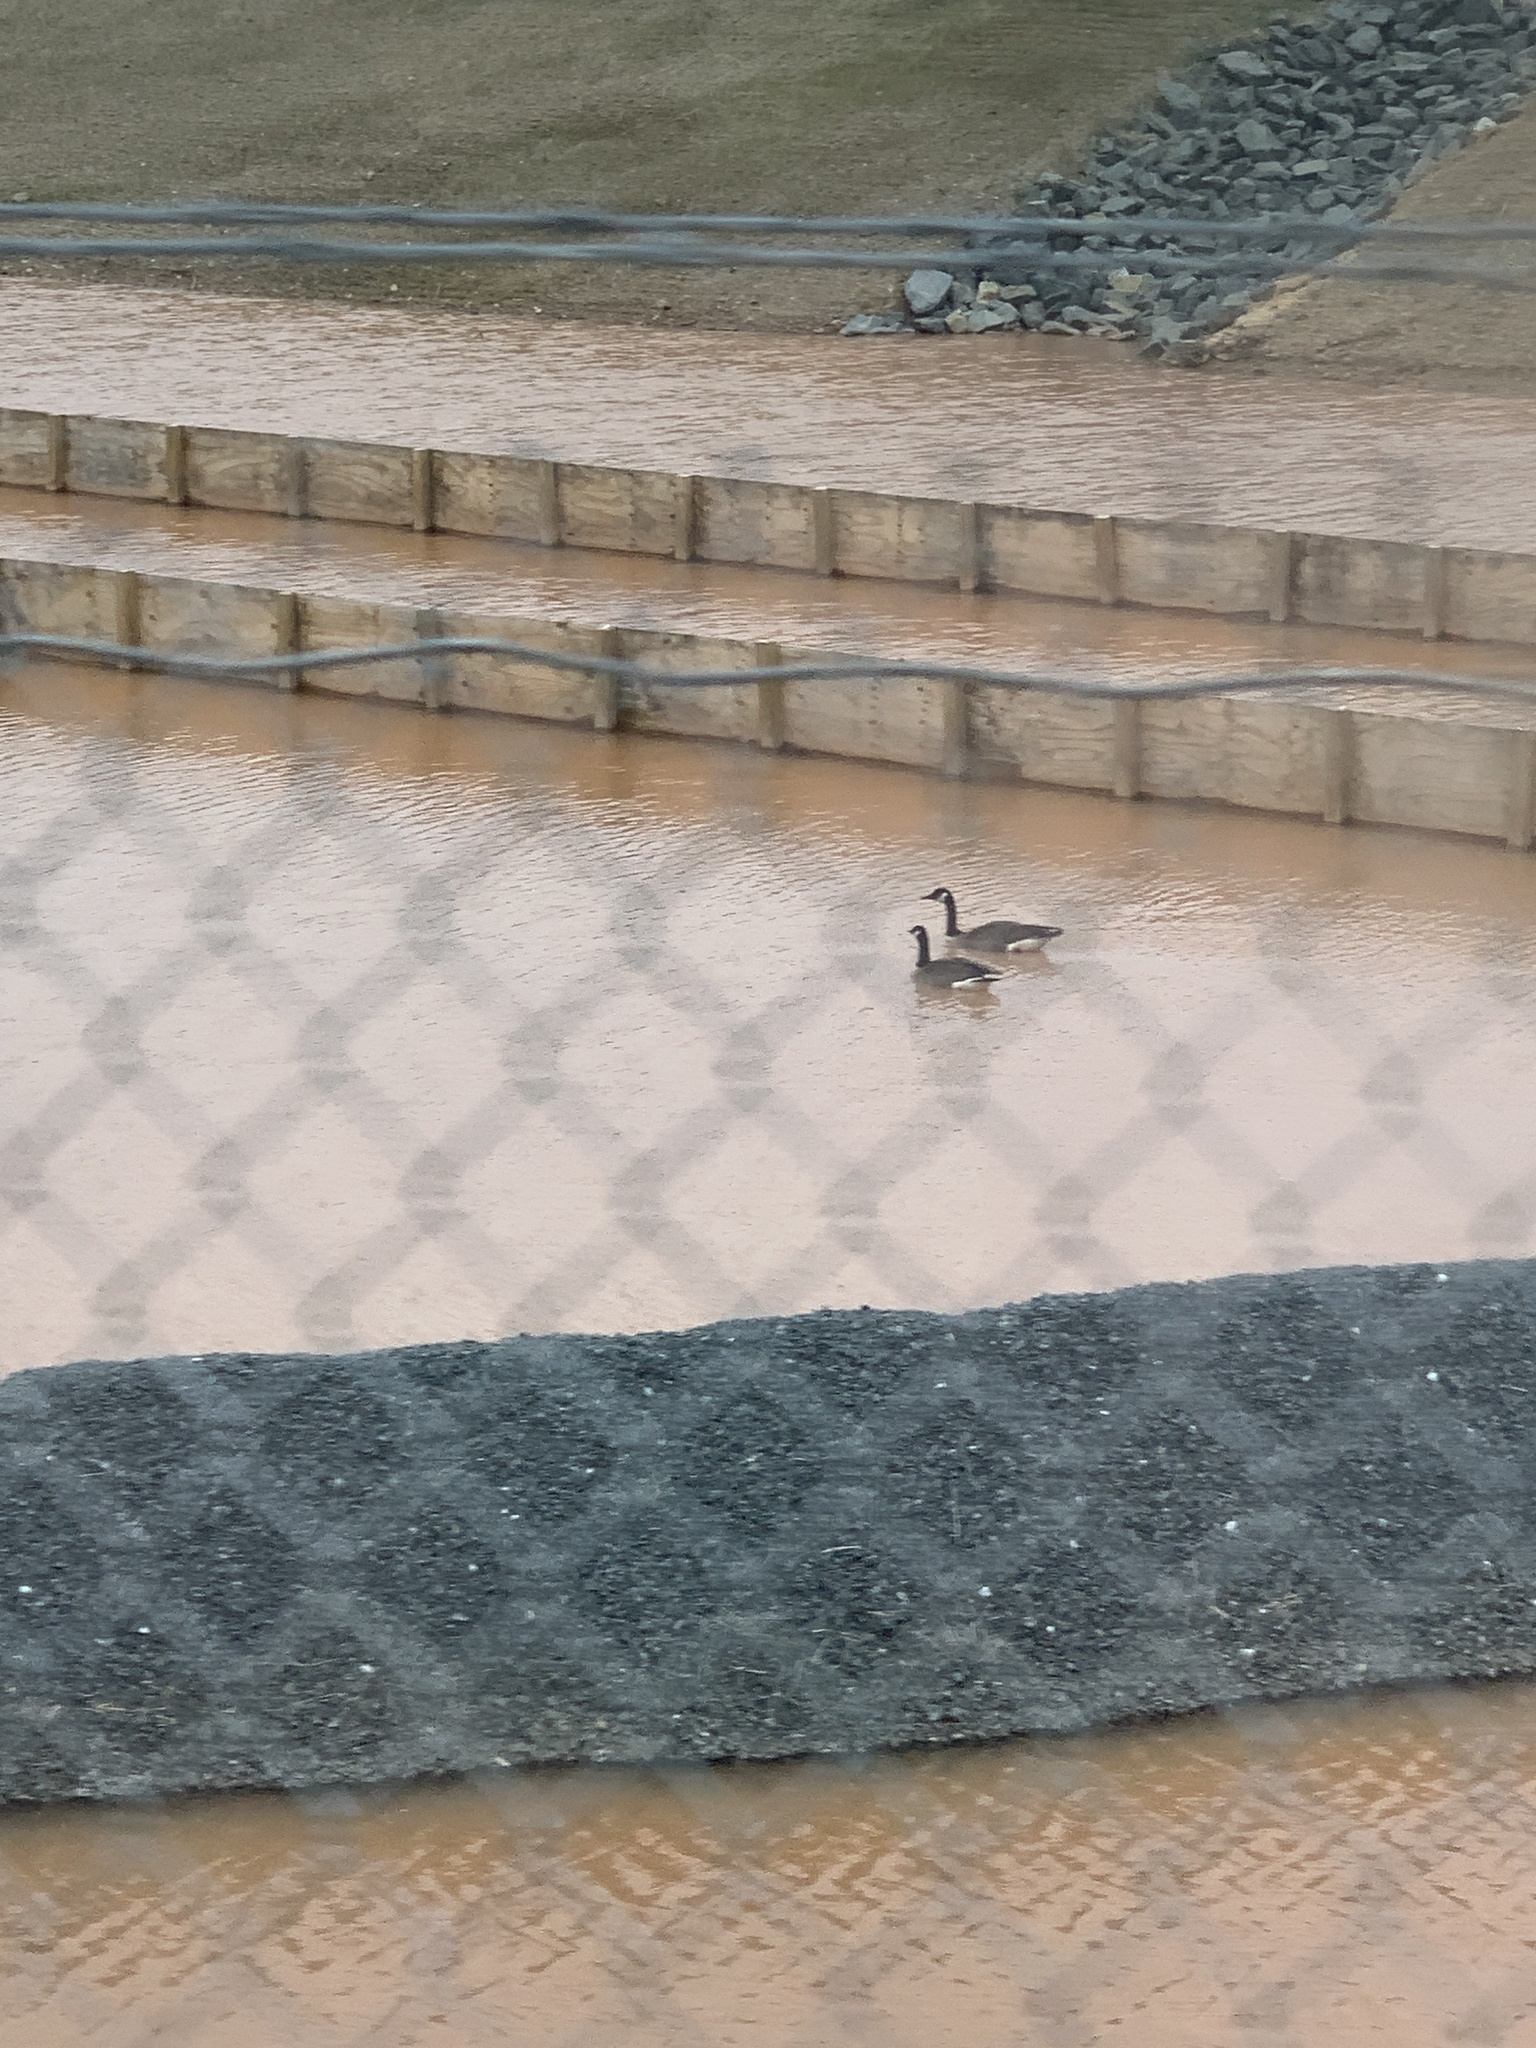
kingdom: Animalia
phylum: Chordata
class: Aves
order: Anseriformes
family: Anatidae
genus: Branta
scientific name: Branta canadensis
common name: Canada goose
